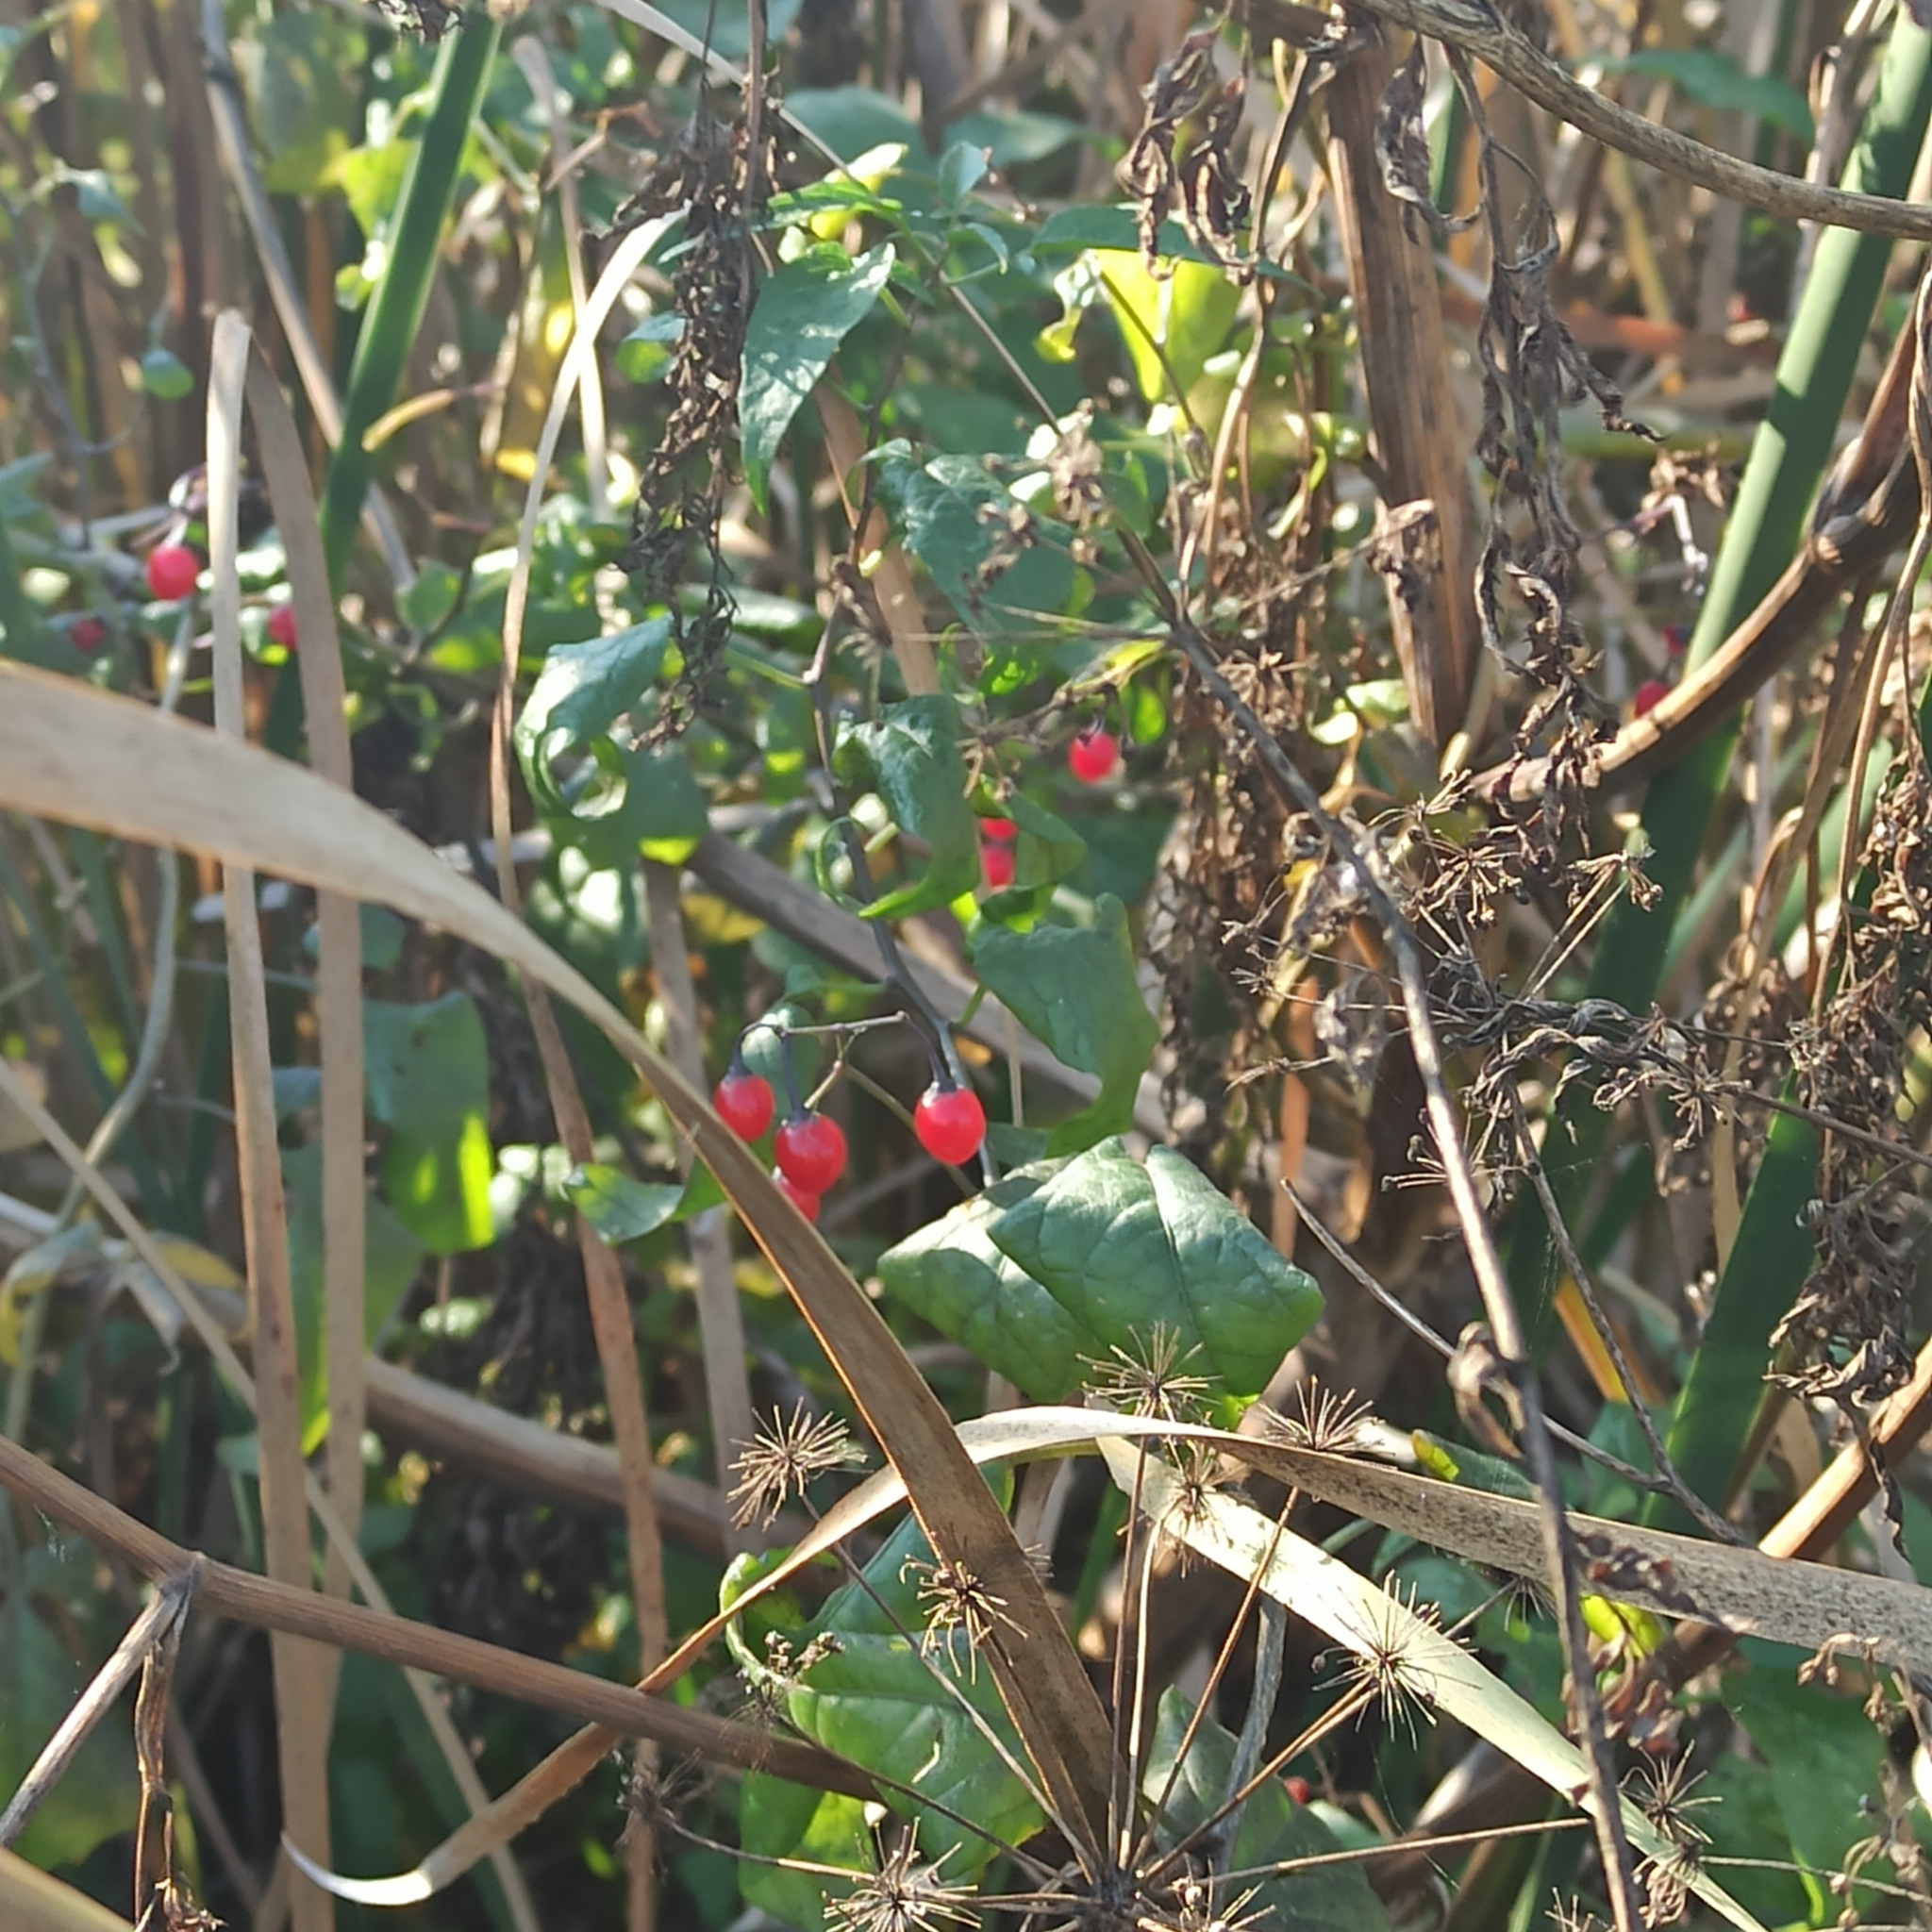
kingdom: Plantae
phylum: Tracheophyta
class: Magnoliopsida
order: Solanales
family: Solanaceae
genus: Solanum
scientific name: Solanum dulcamara
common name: Climbing nightshade
